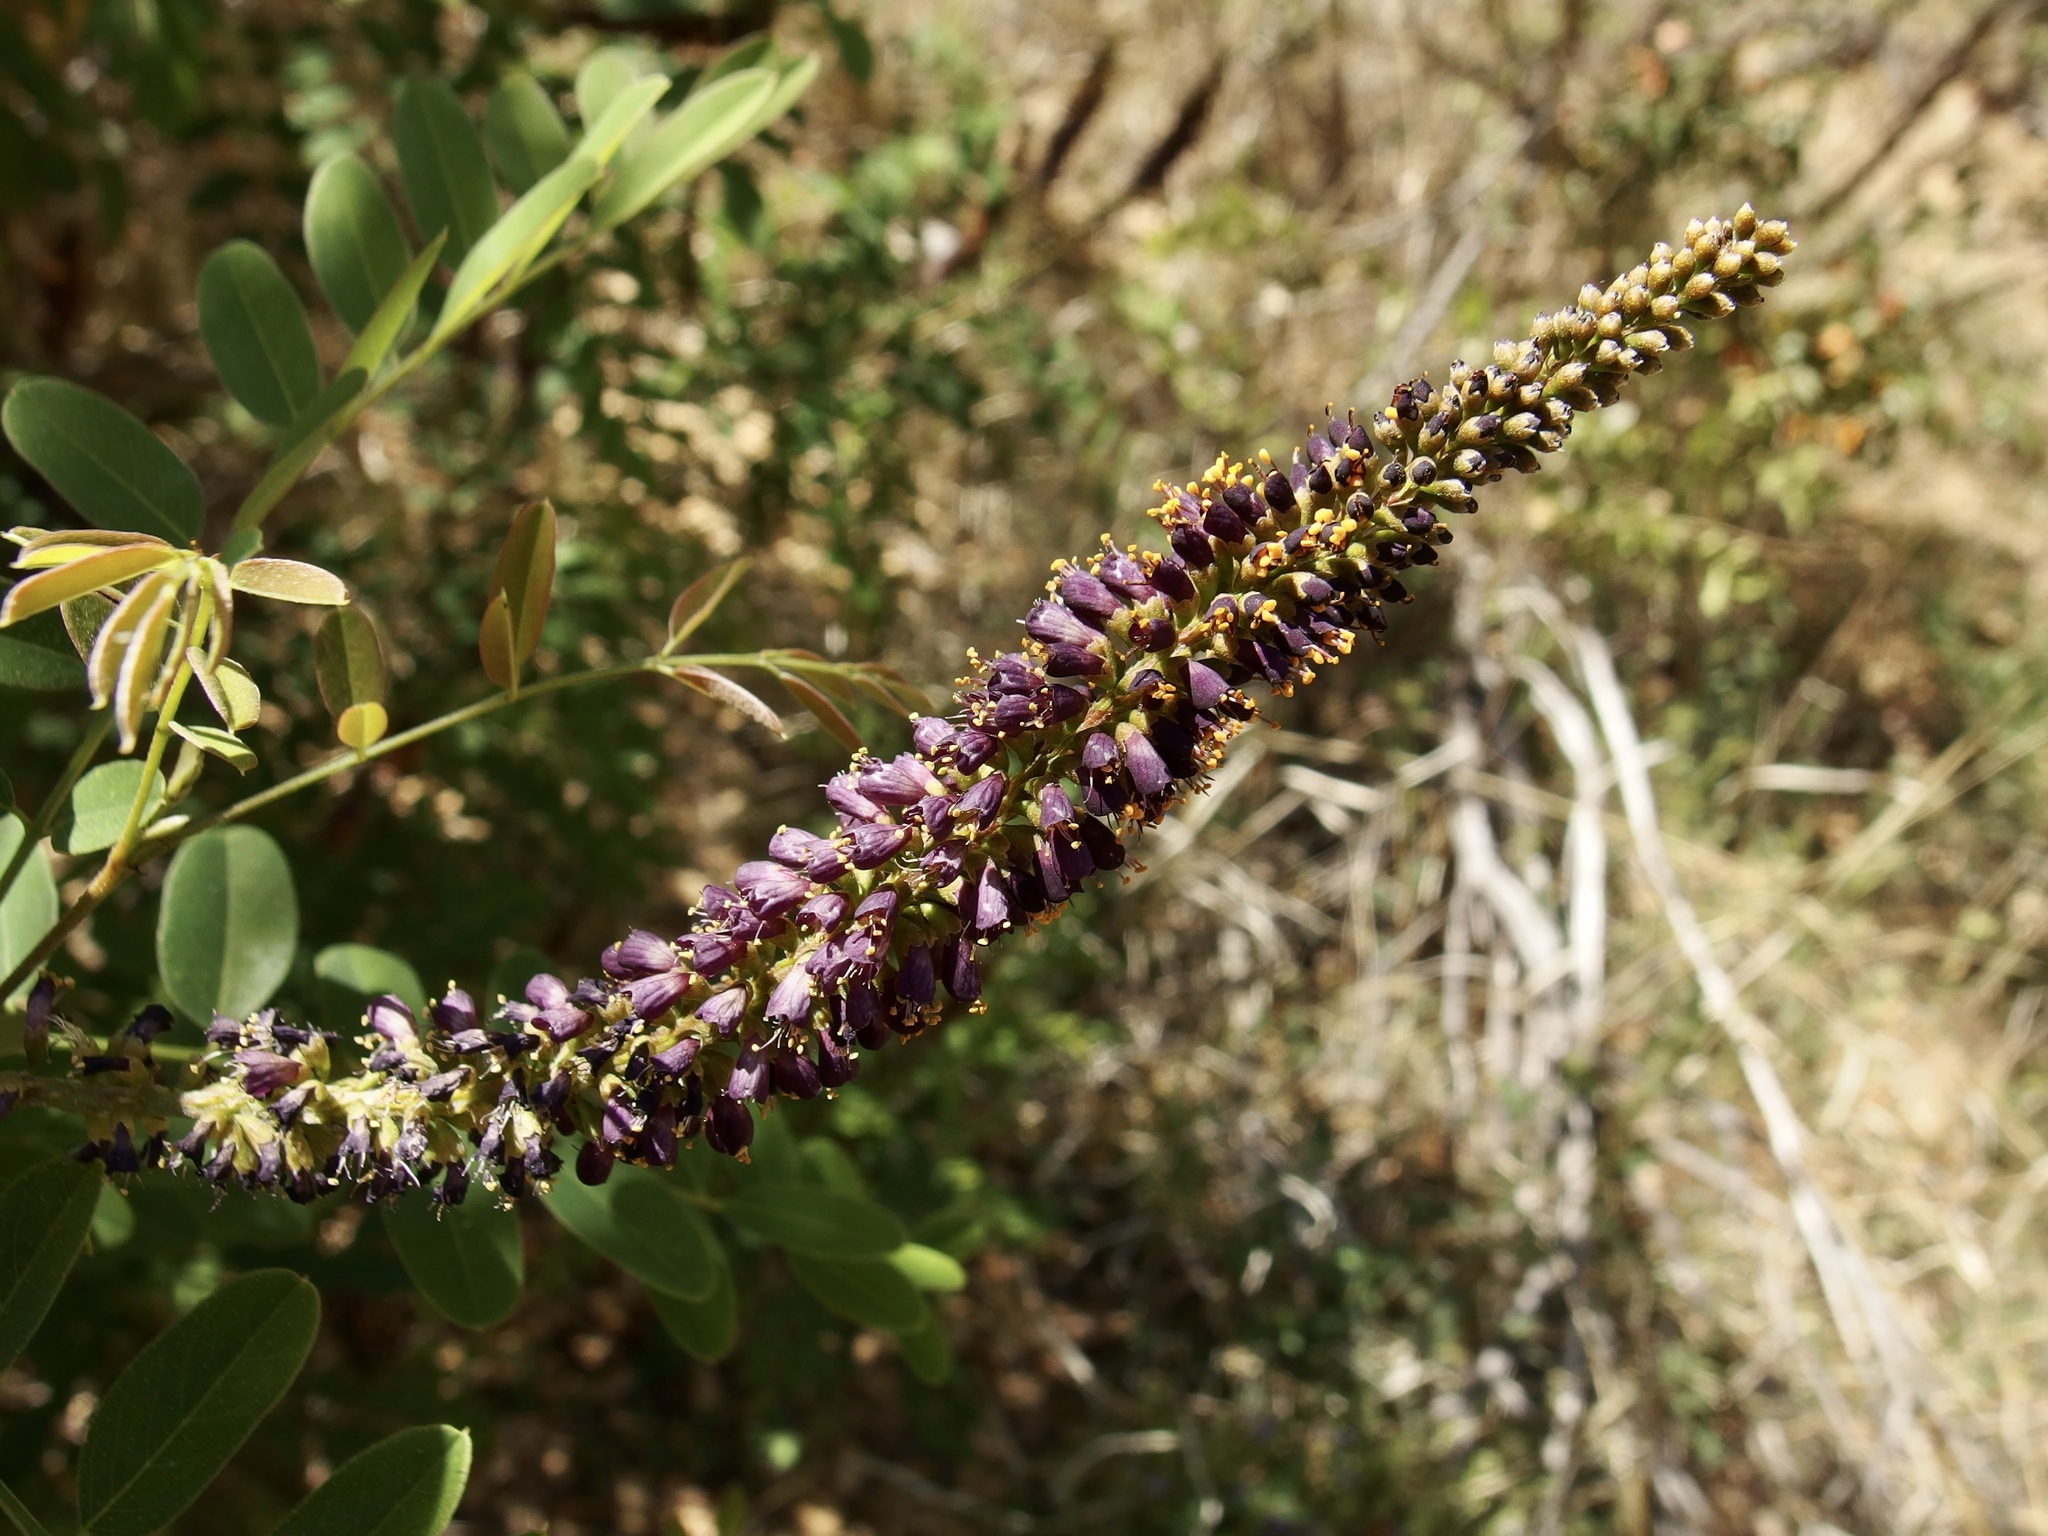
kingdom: Plantae
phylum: Tracheophyta
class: Magnoliopsida
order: Fabales
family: Fabaceae
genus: Amorpha
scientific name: Amorpha fruticosa
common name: False indigo
